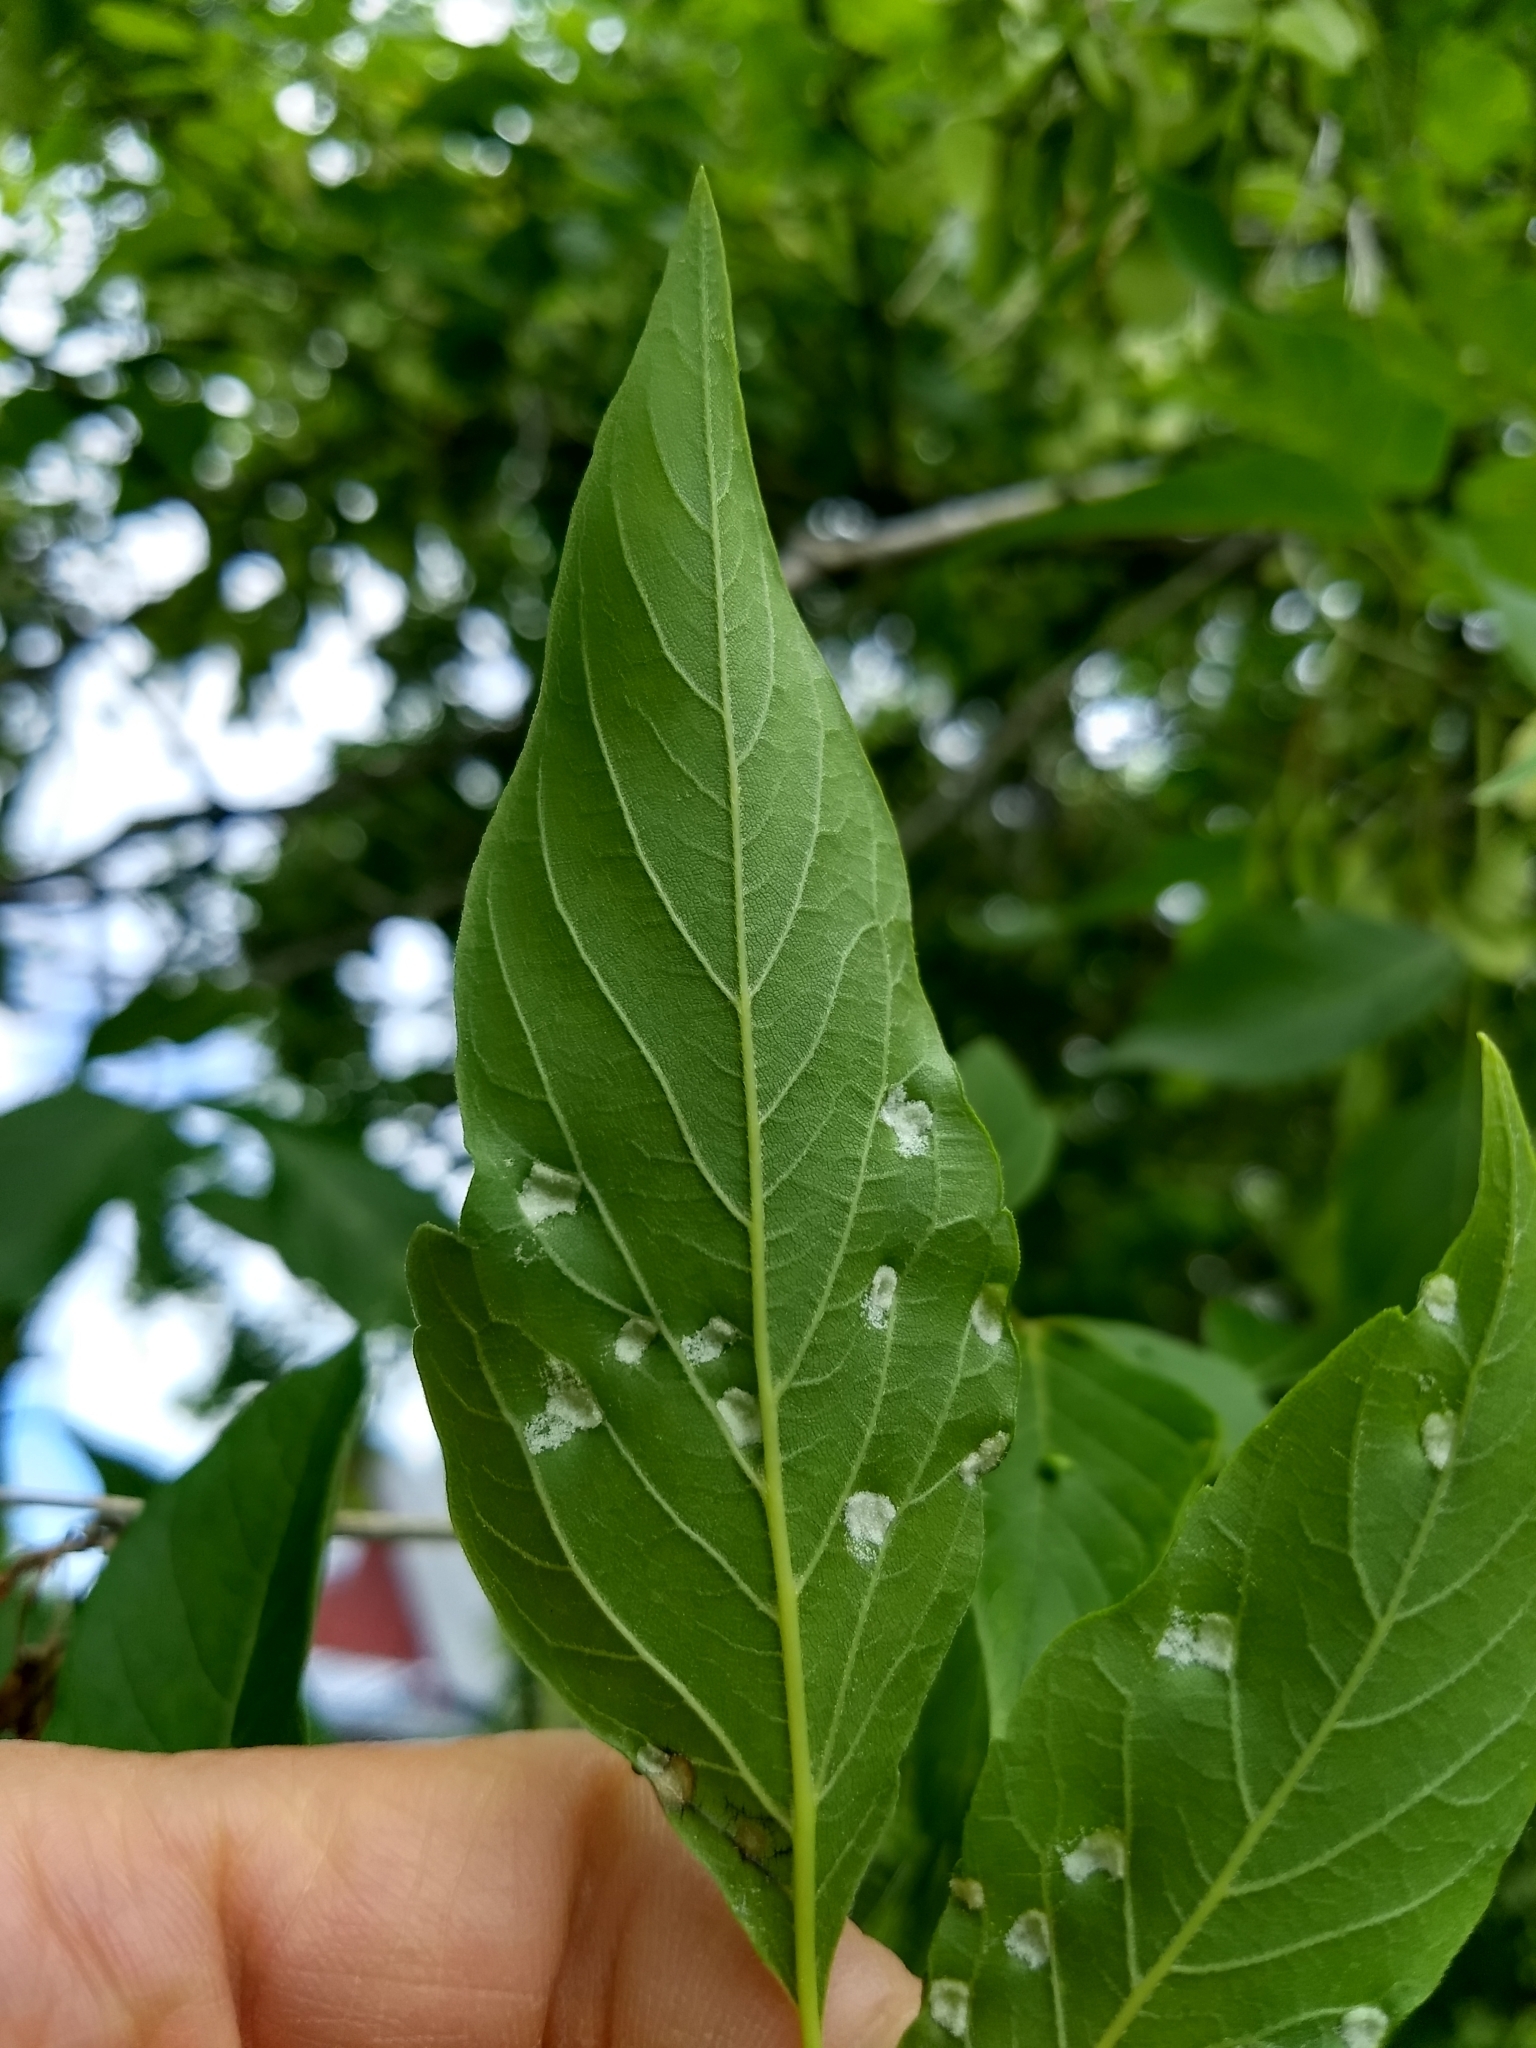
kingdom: Animalia
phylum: Arthropoda
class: Arachnida
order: Trombidiformes
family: Eriophyidae
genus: Aceria
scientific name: Aceria
